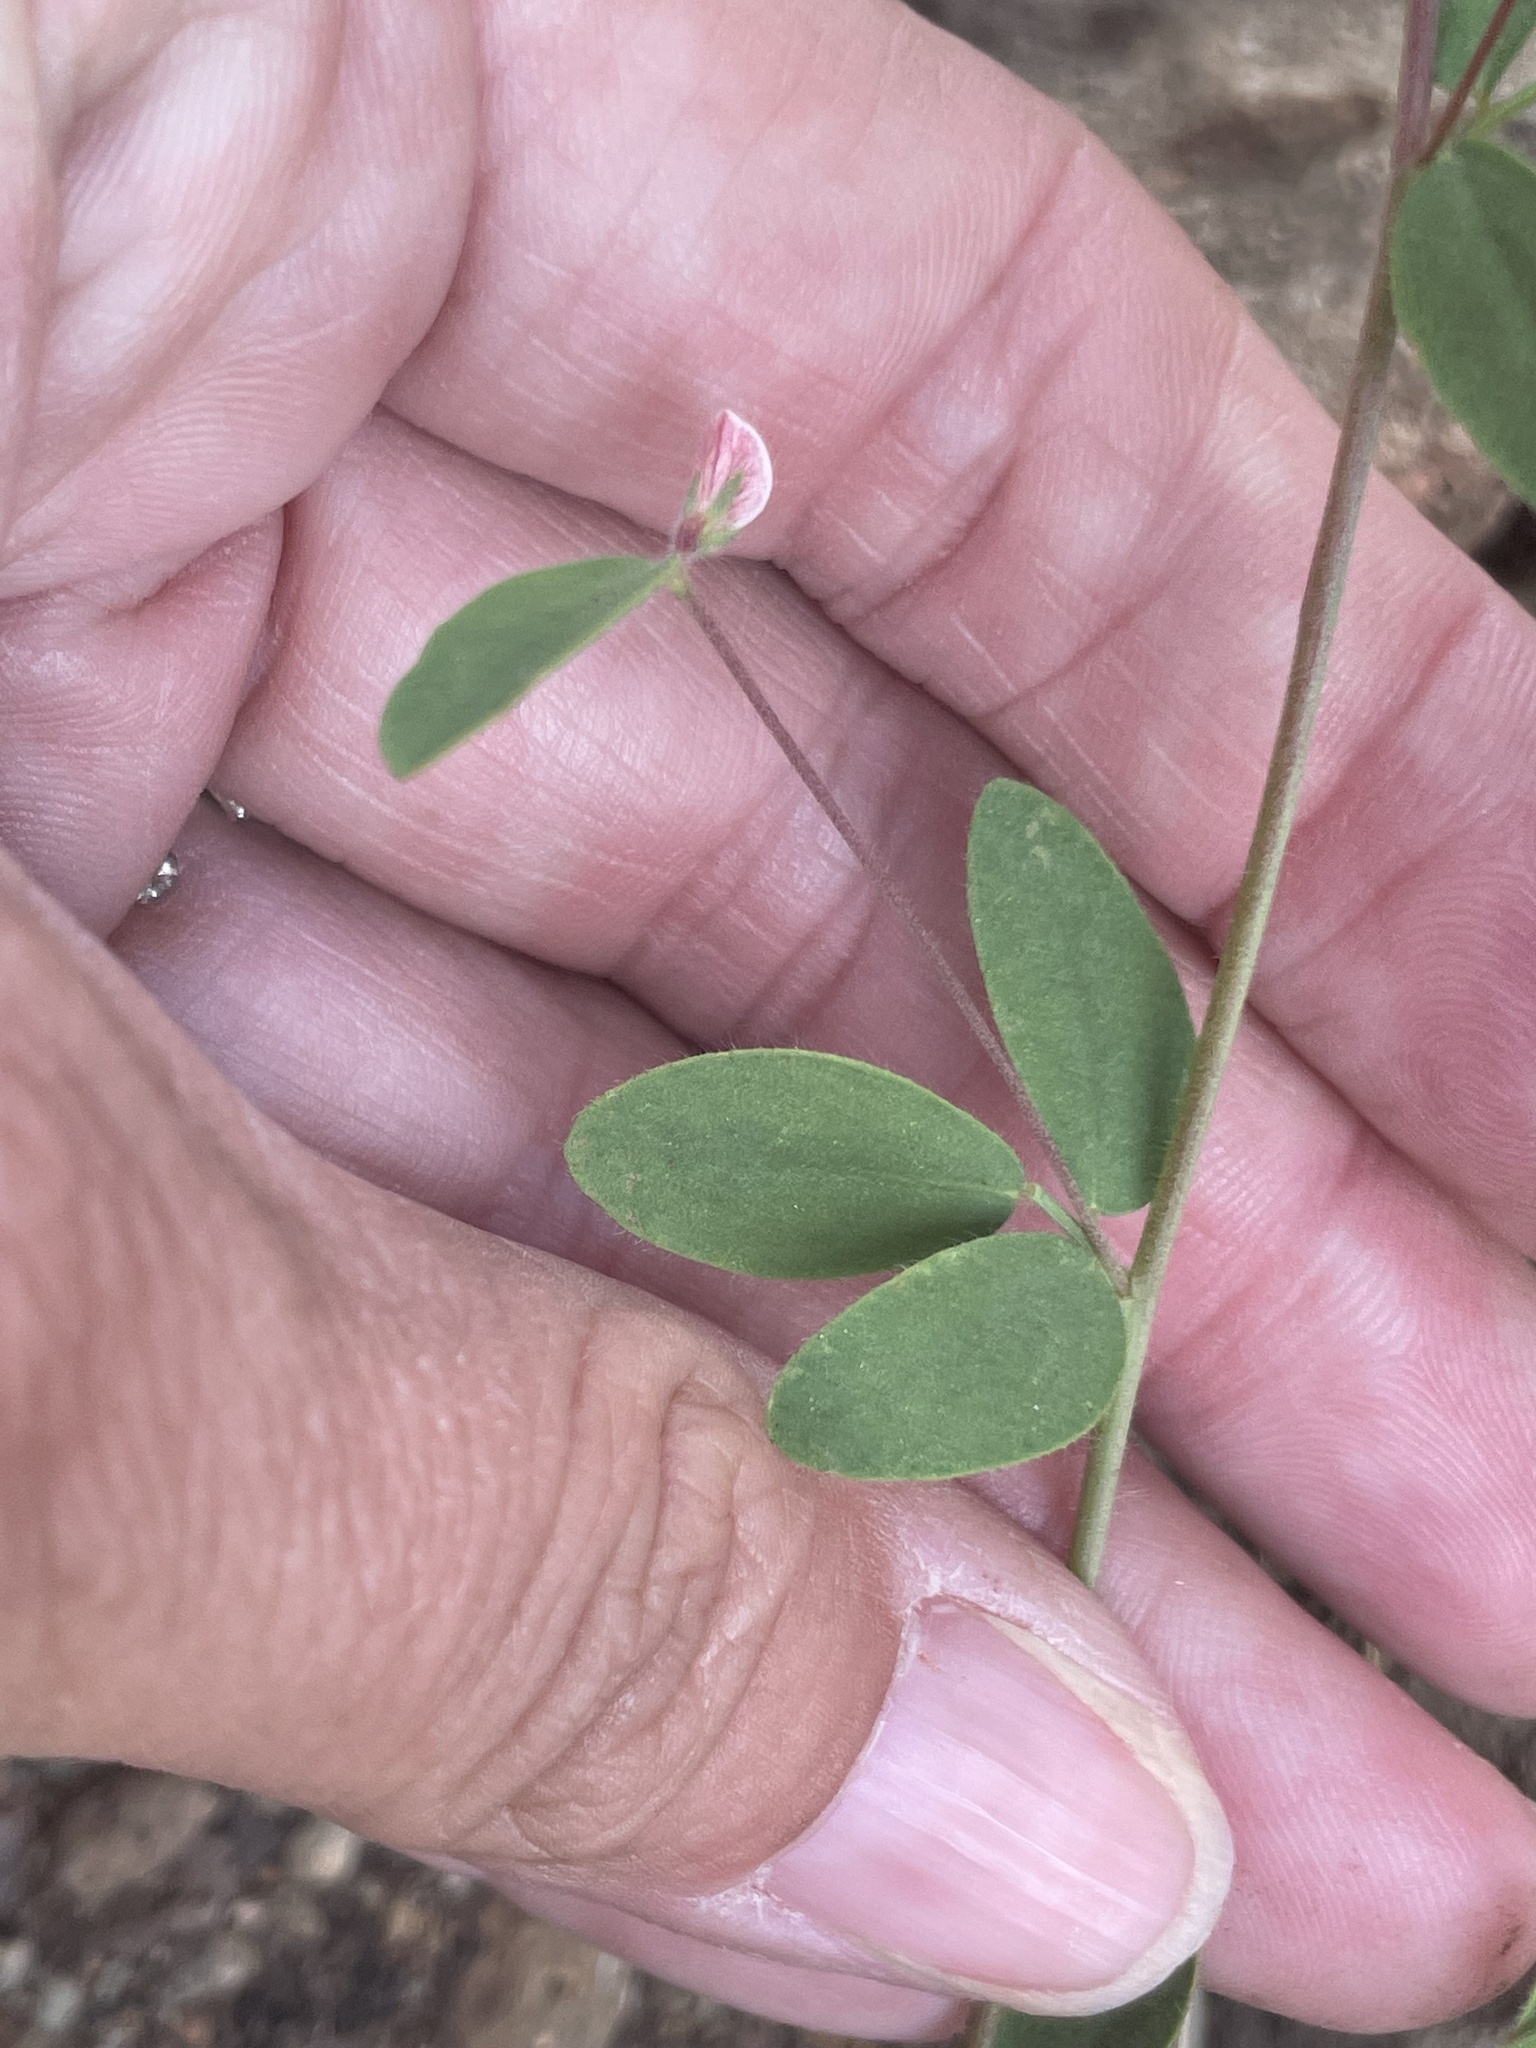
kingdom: Plantae
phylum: Tracheophyta
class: Magnoliopsida
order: Fabales
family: Fabaceae
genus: Acmispon
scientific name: Acmispon americanus
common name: American bird's-foot trefoil
